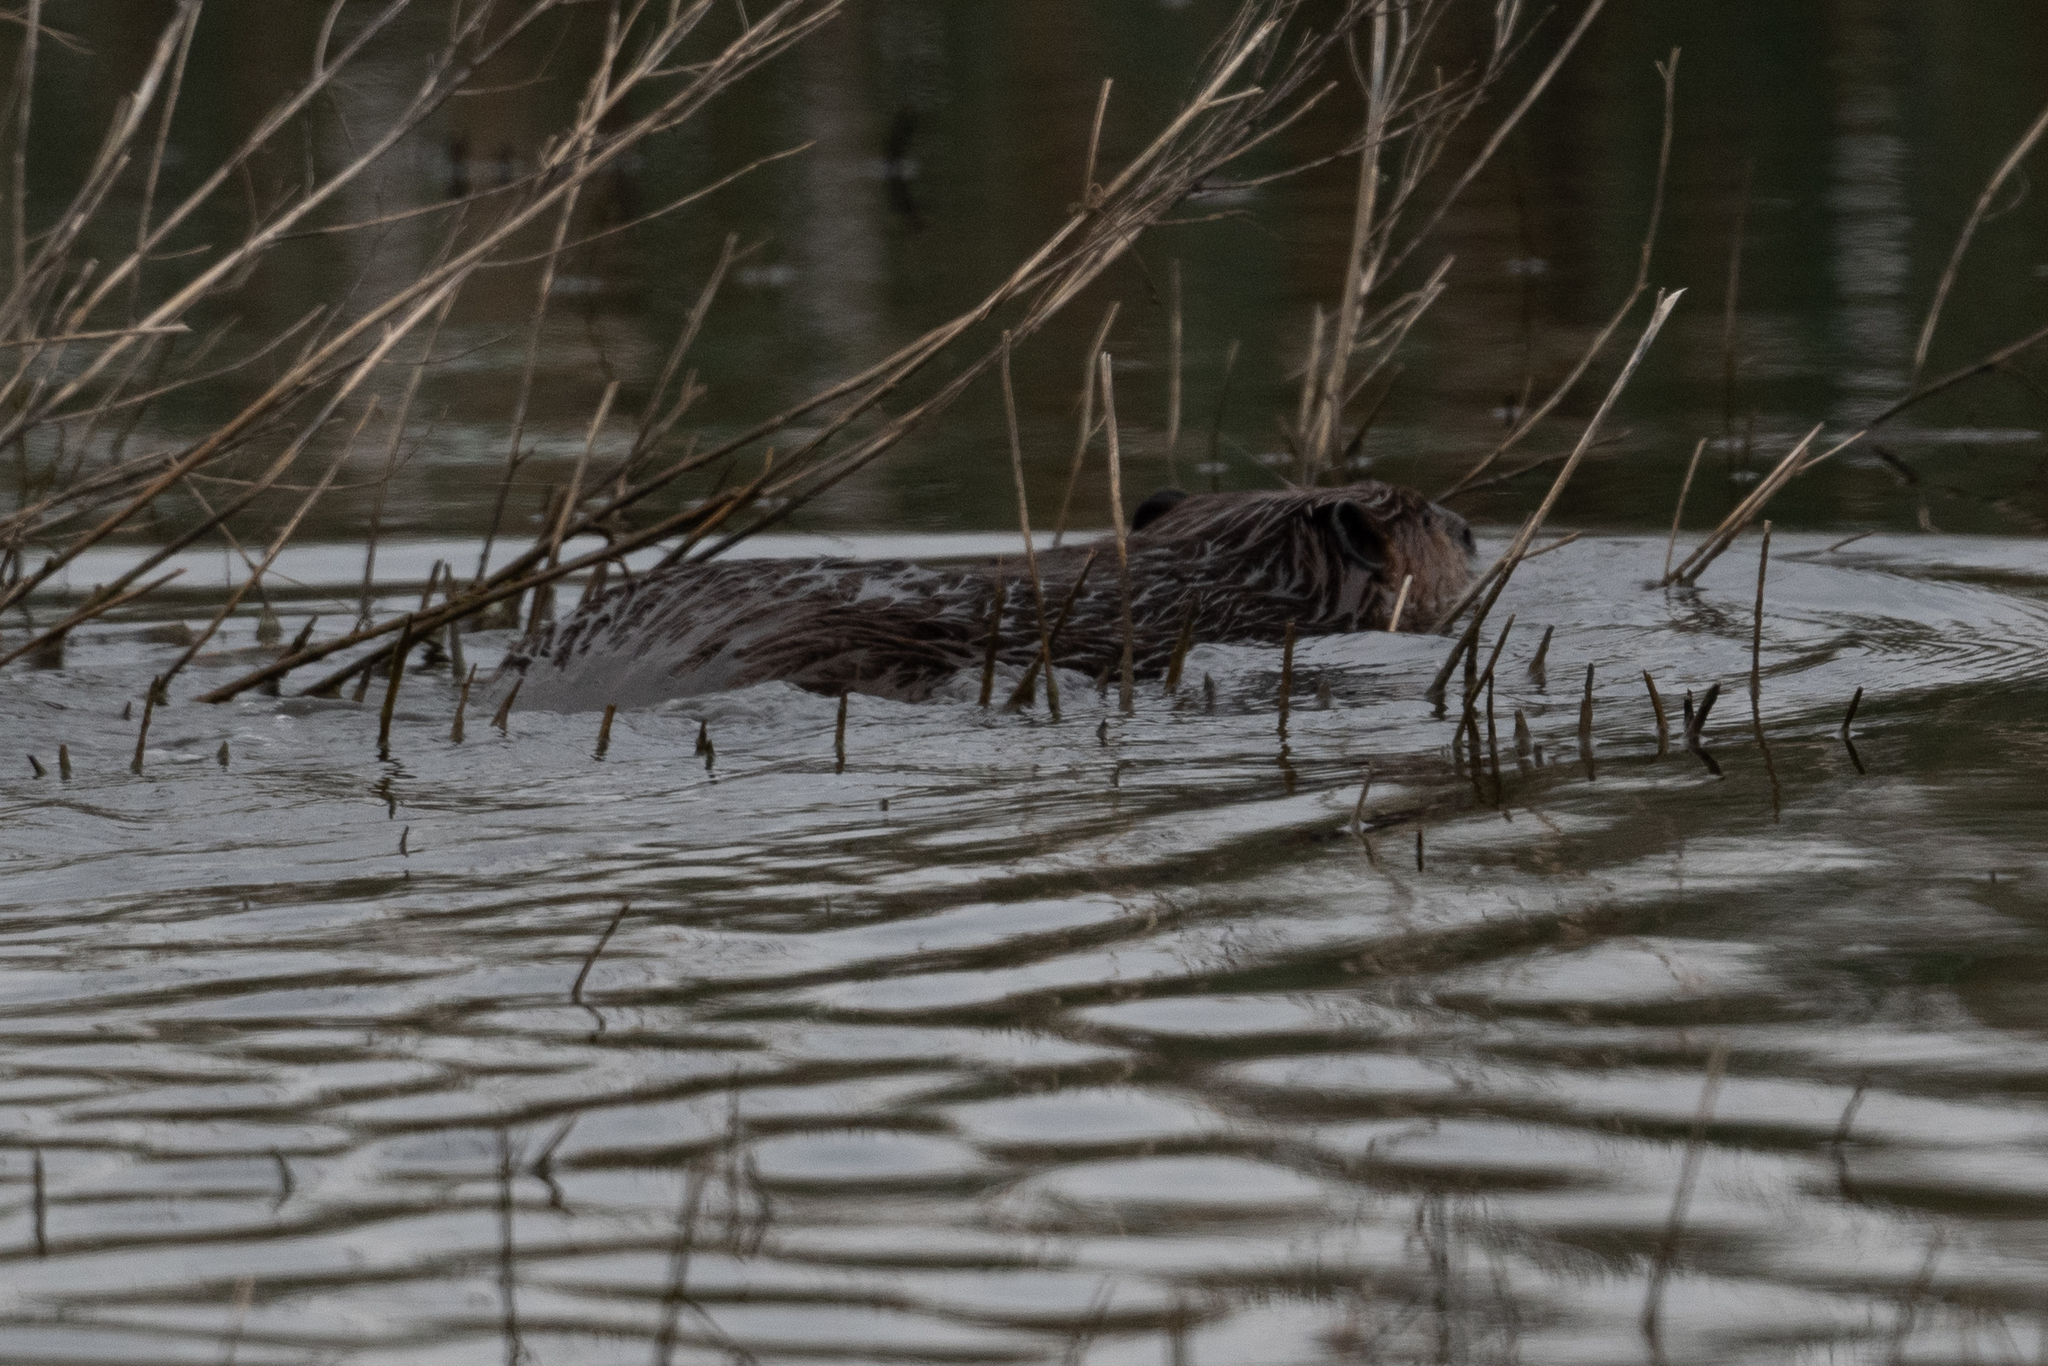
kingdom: Animalia
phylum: Chordata
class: Mammalia
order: Rodentia
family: Castoridae
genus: Castor
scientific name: Castor canadensis
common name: American beaver
